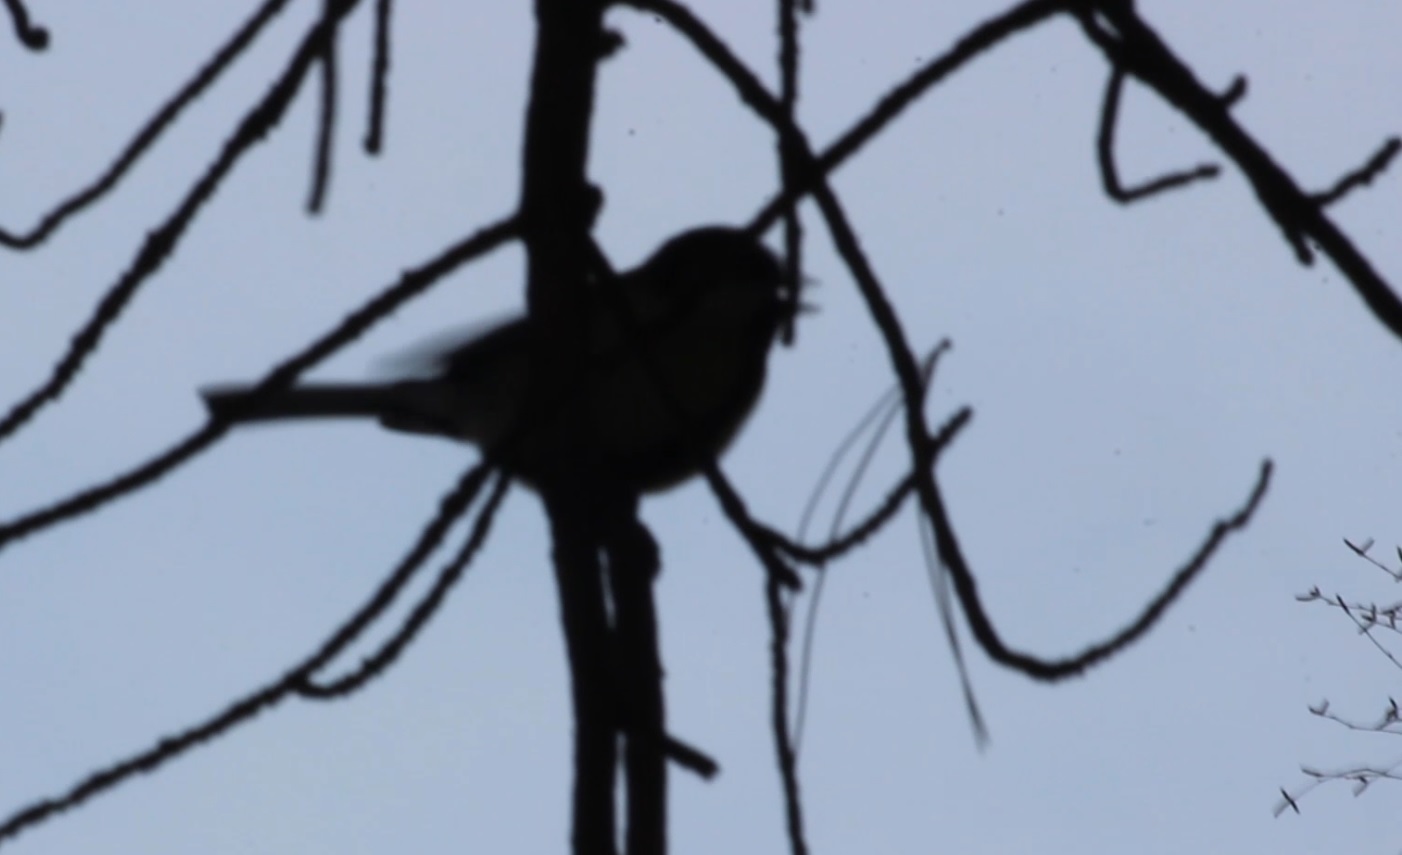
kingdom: Animalia
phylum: Chordata
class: Aves
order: Passeriformes
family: Paridae
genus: Parus
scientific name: Parus major
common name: Great tit
